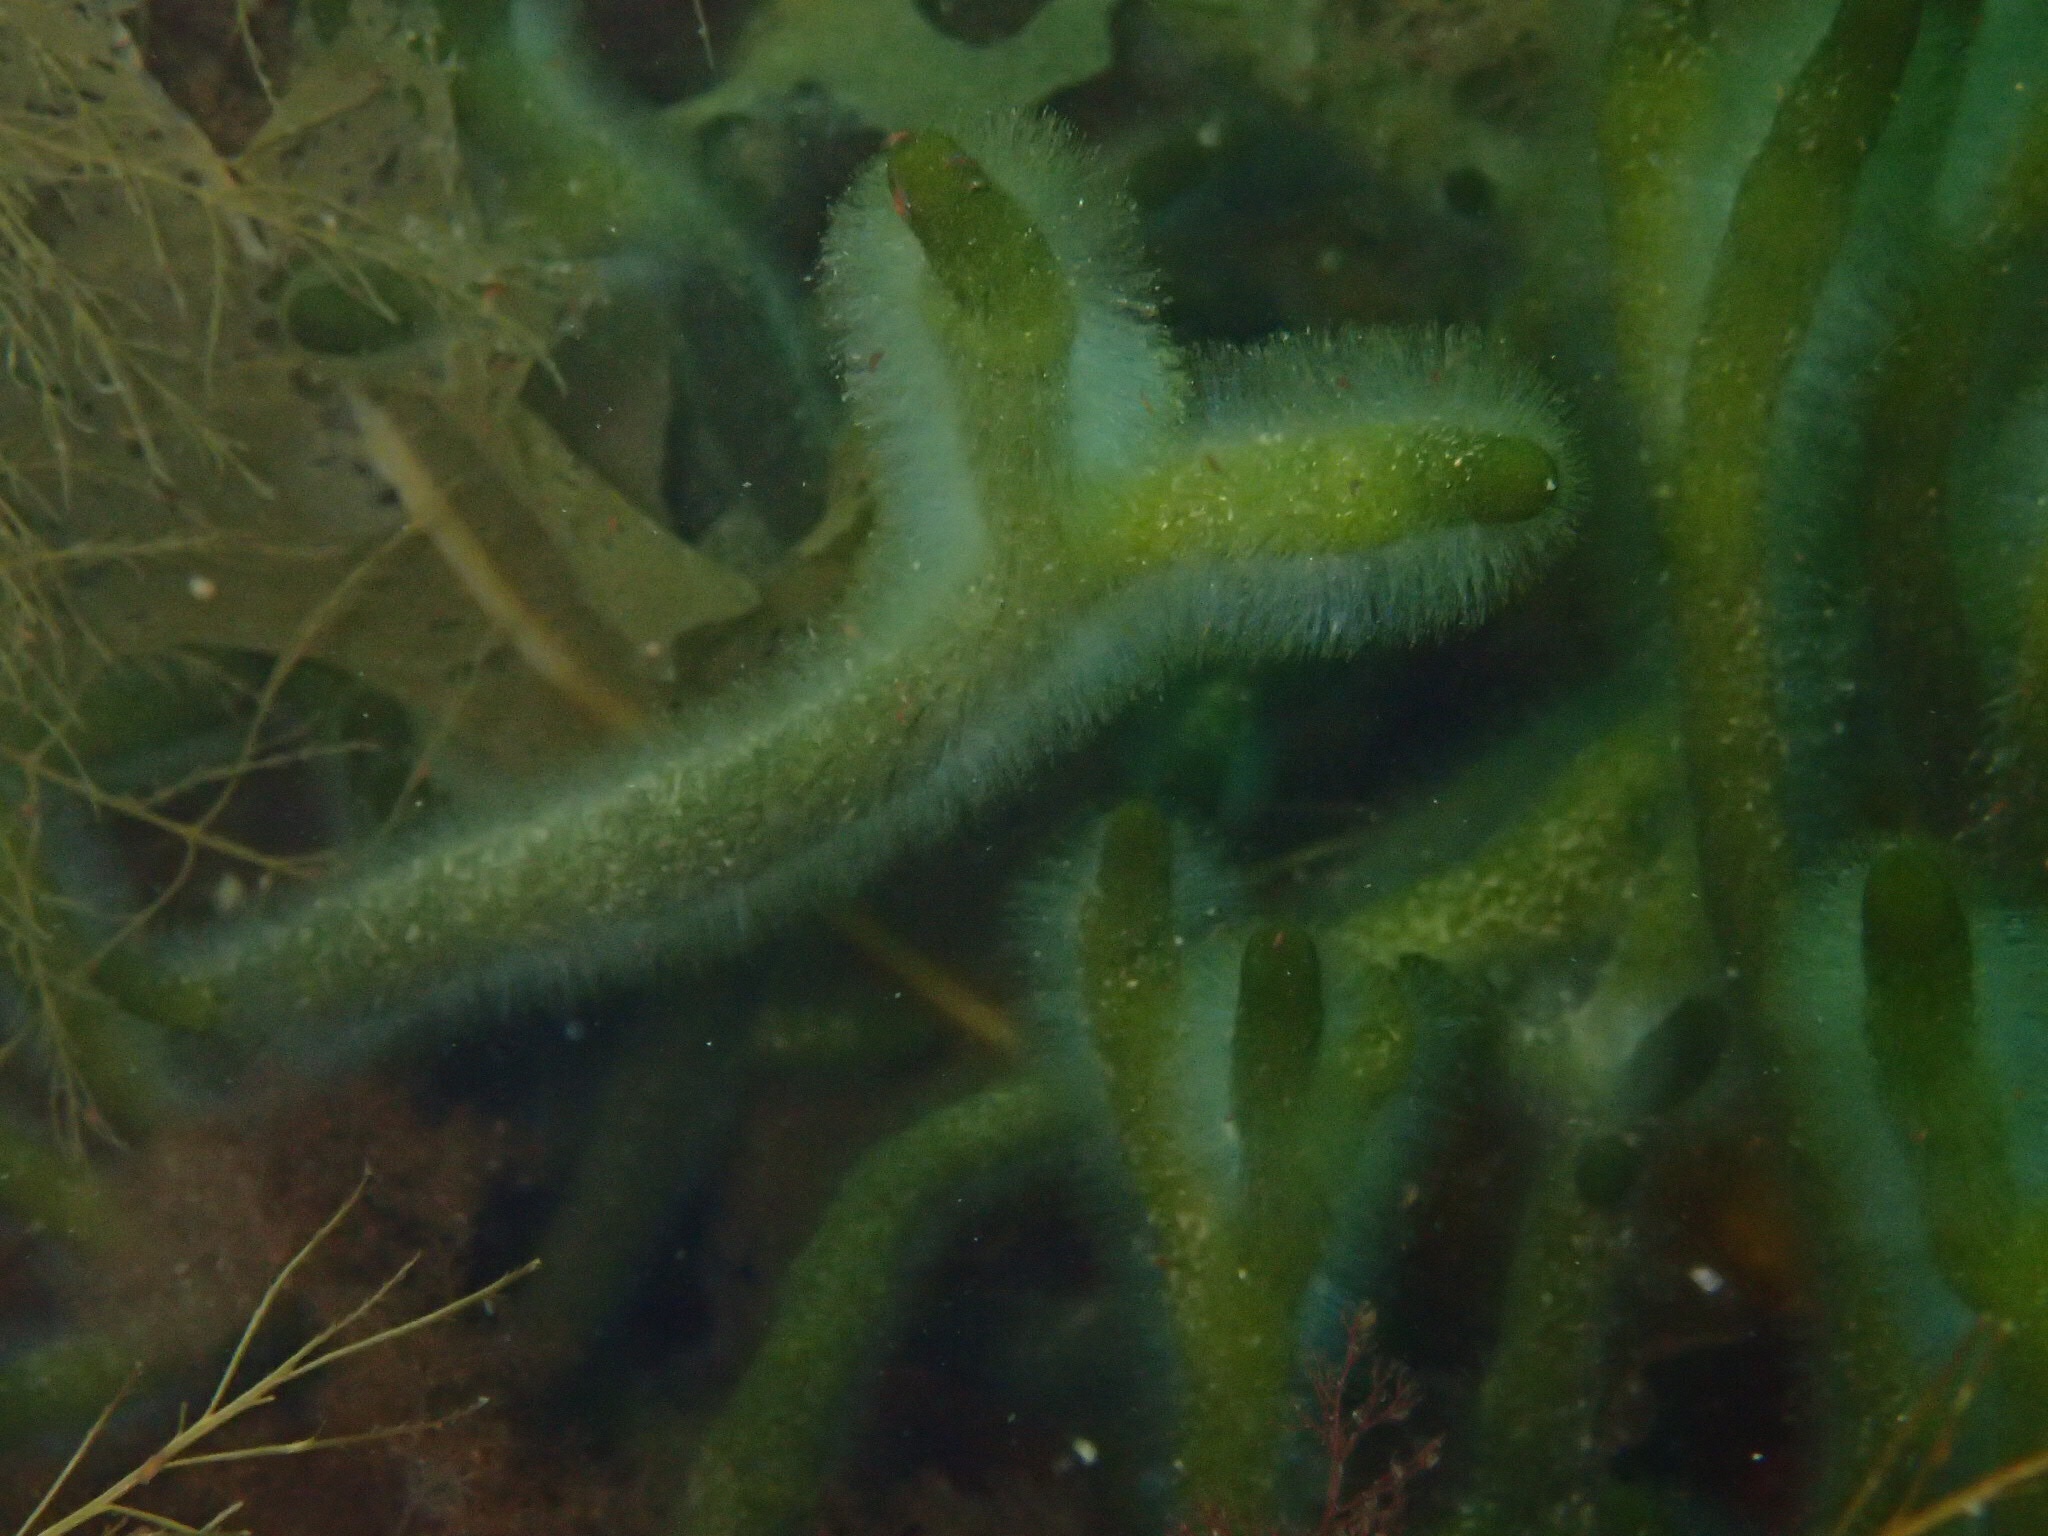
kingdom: Plantae
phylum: Chlorophyta
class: Ulvophyceae
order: Bryopsidales
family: Codiaceae
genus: Codium
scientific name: Codium fragile
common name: Dead man's fingers
